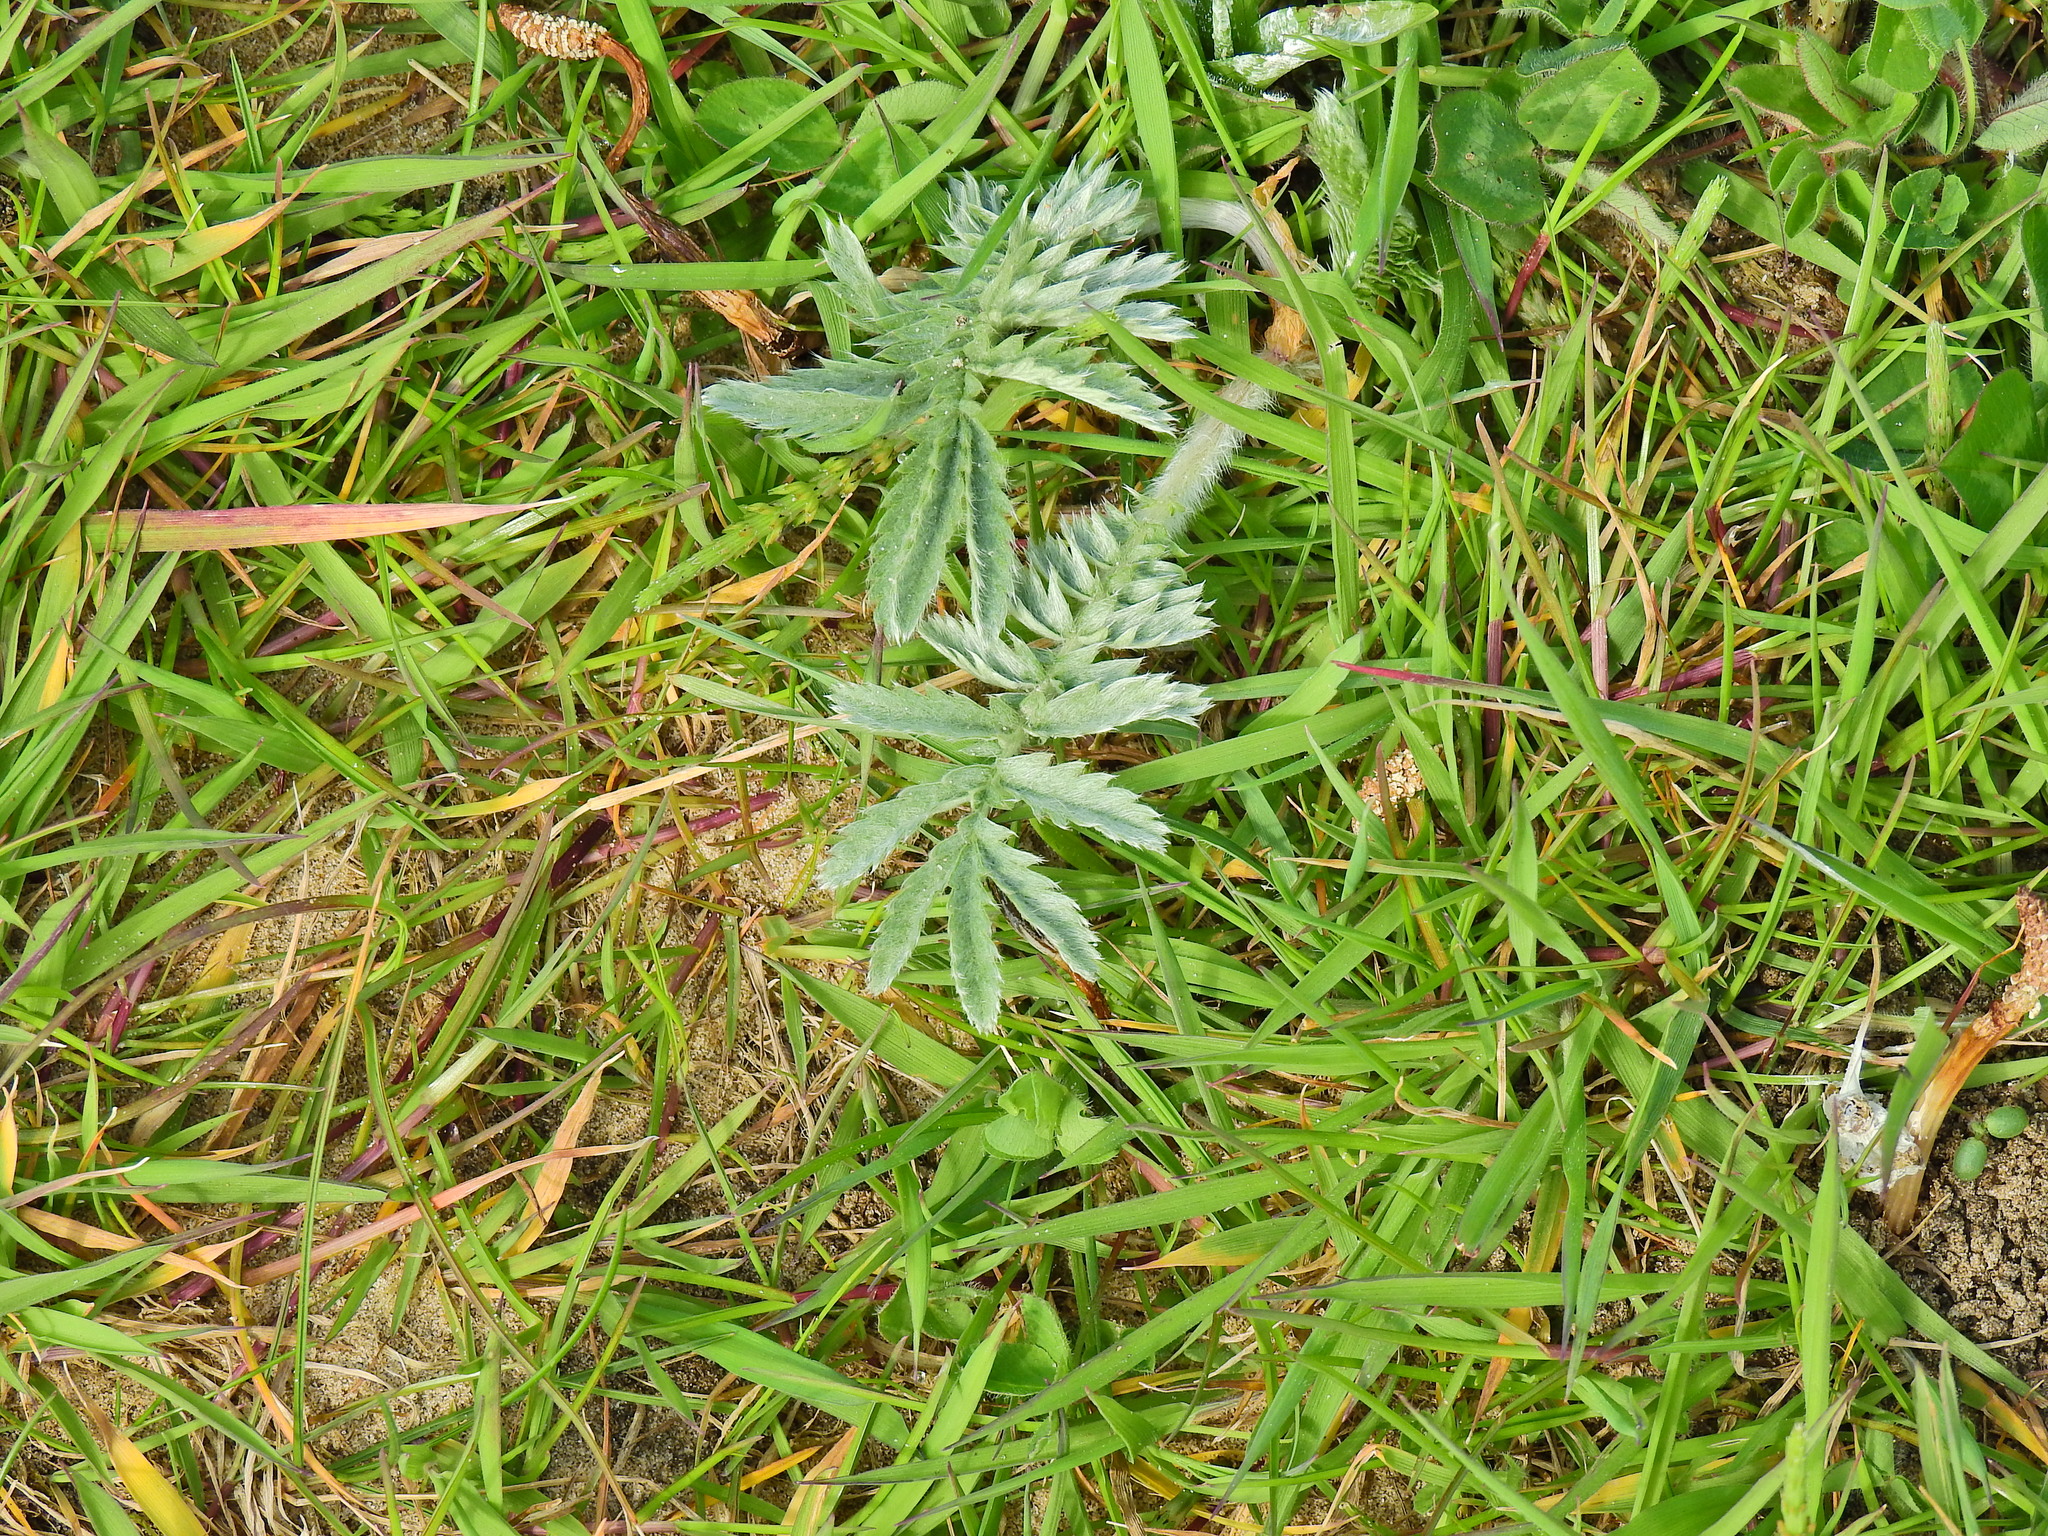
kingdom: Plantae
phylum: Tracheophyta
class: Magnoliopsida
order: Rosales
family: Rosaceae
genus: Argentina
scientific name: Argentina anserina
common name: Common silverweed
